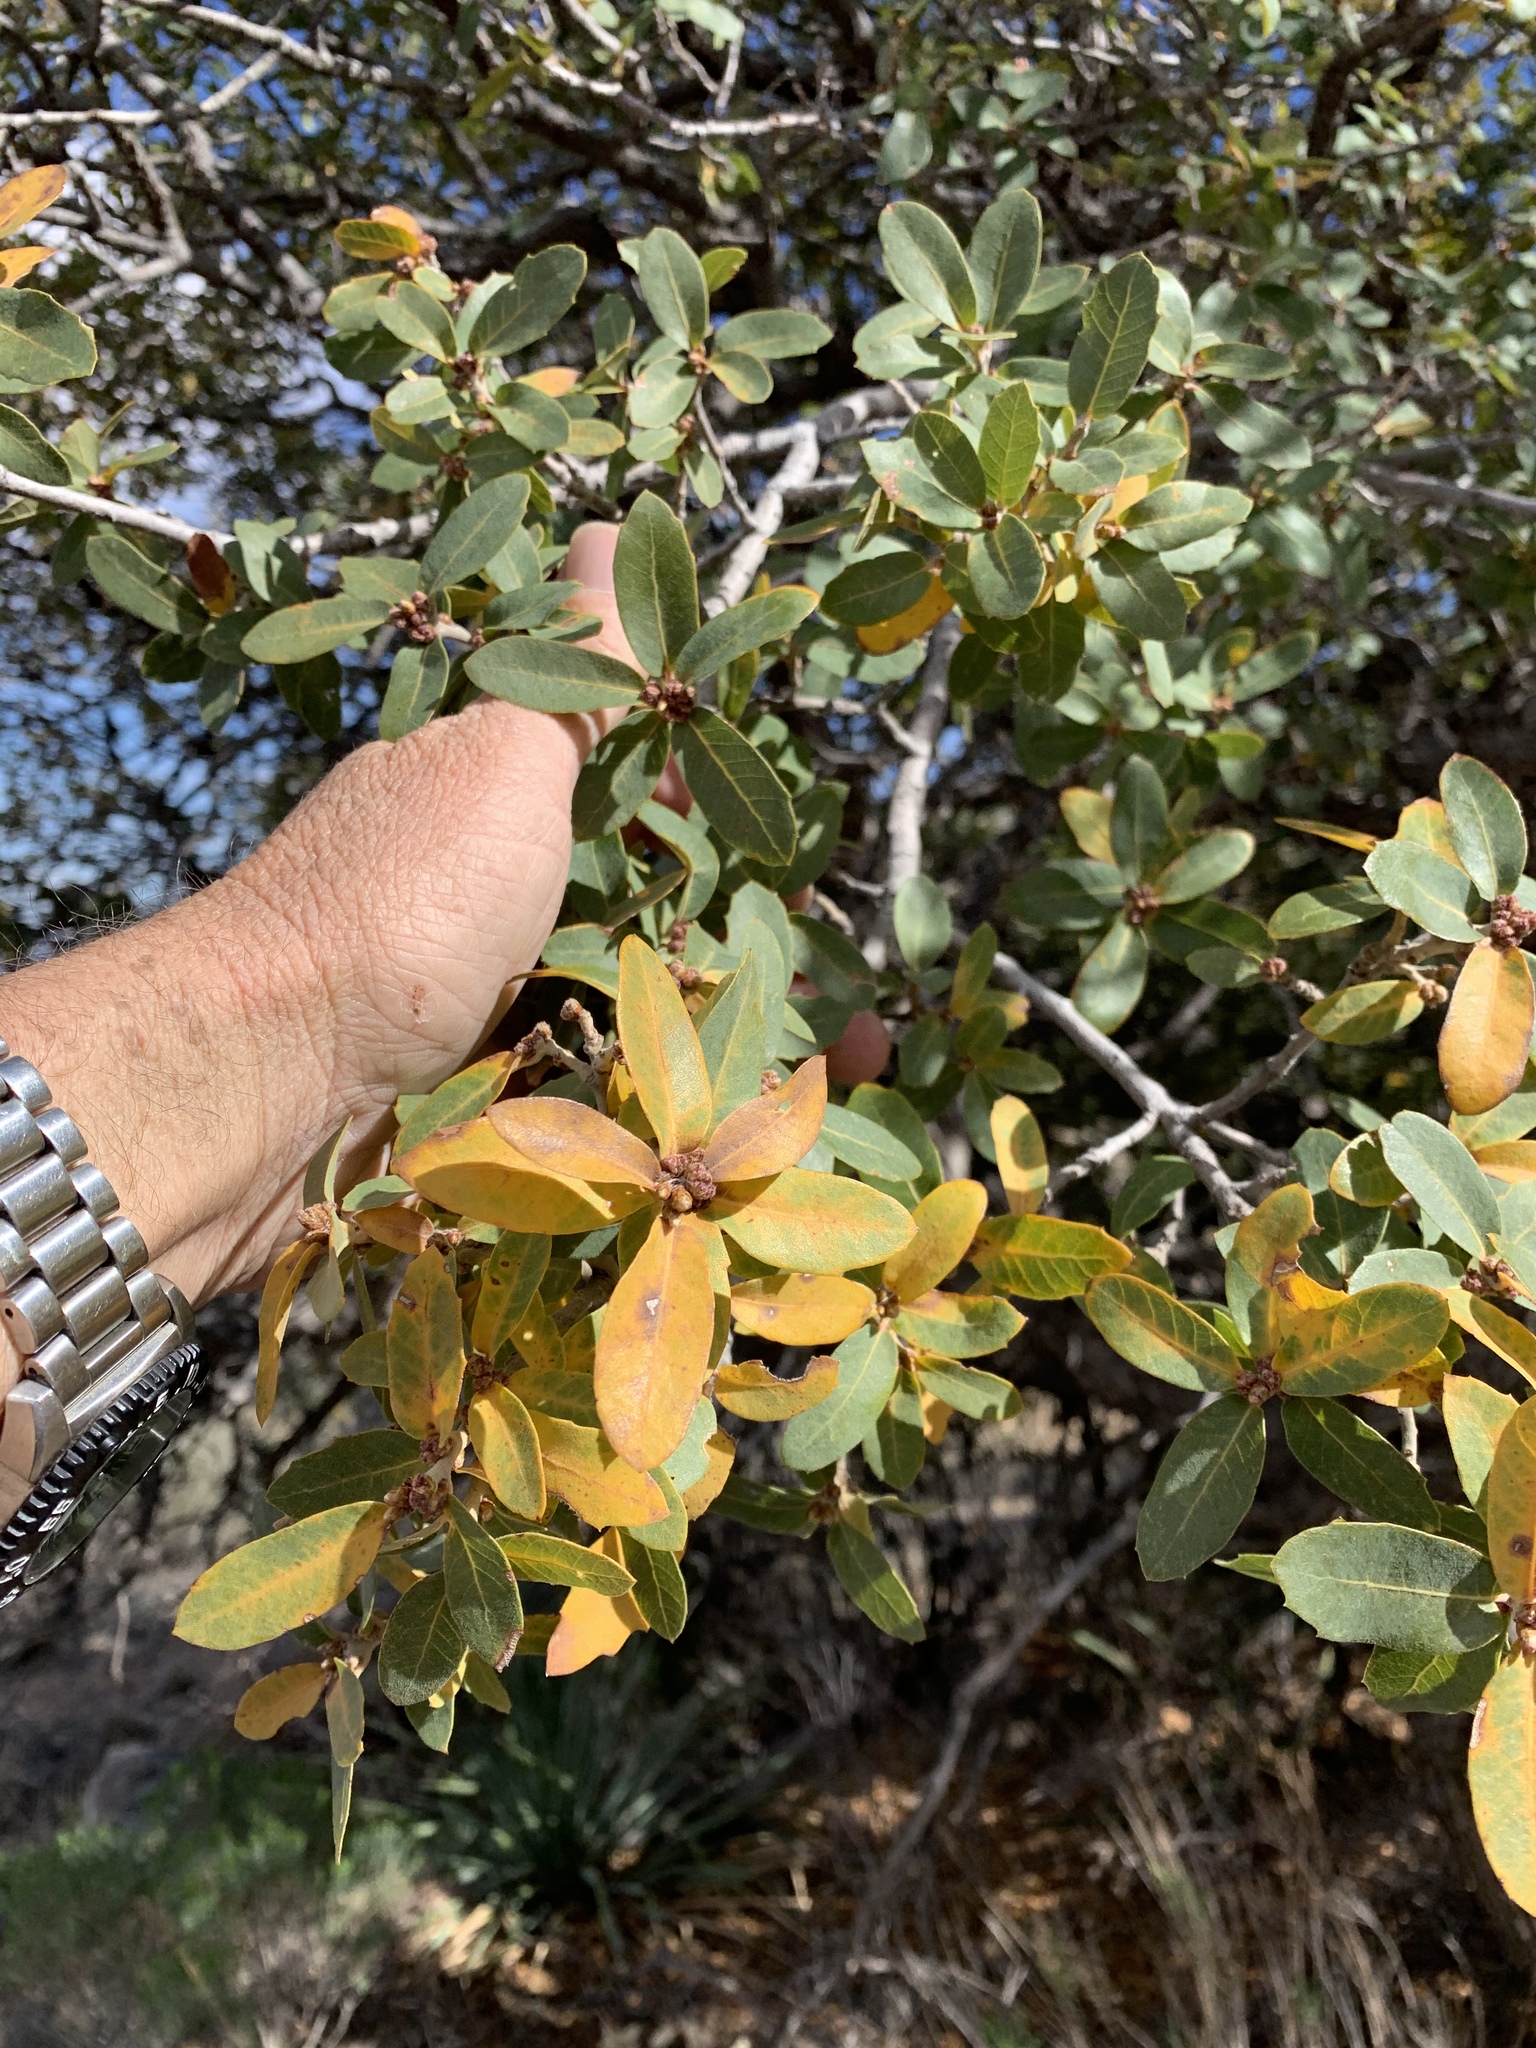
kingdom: Plantae
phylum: Tracheophyta
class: Magnoliopsida
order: Fagales
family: Fagaceae
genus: Quercus
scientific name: Quercus grisea
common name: Gray oak
